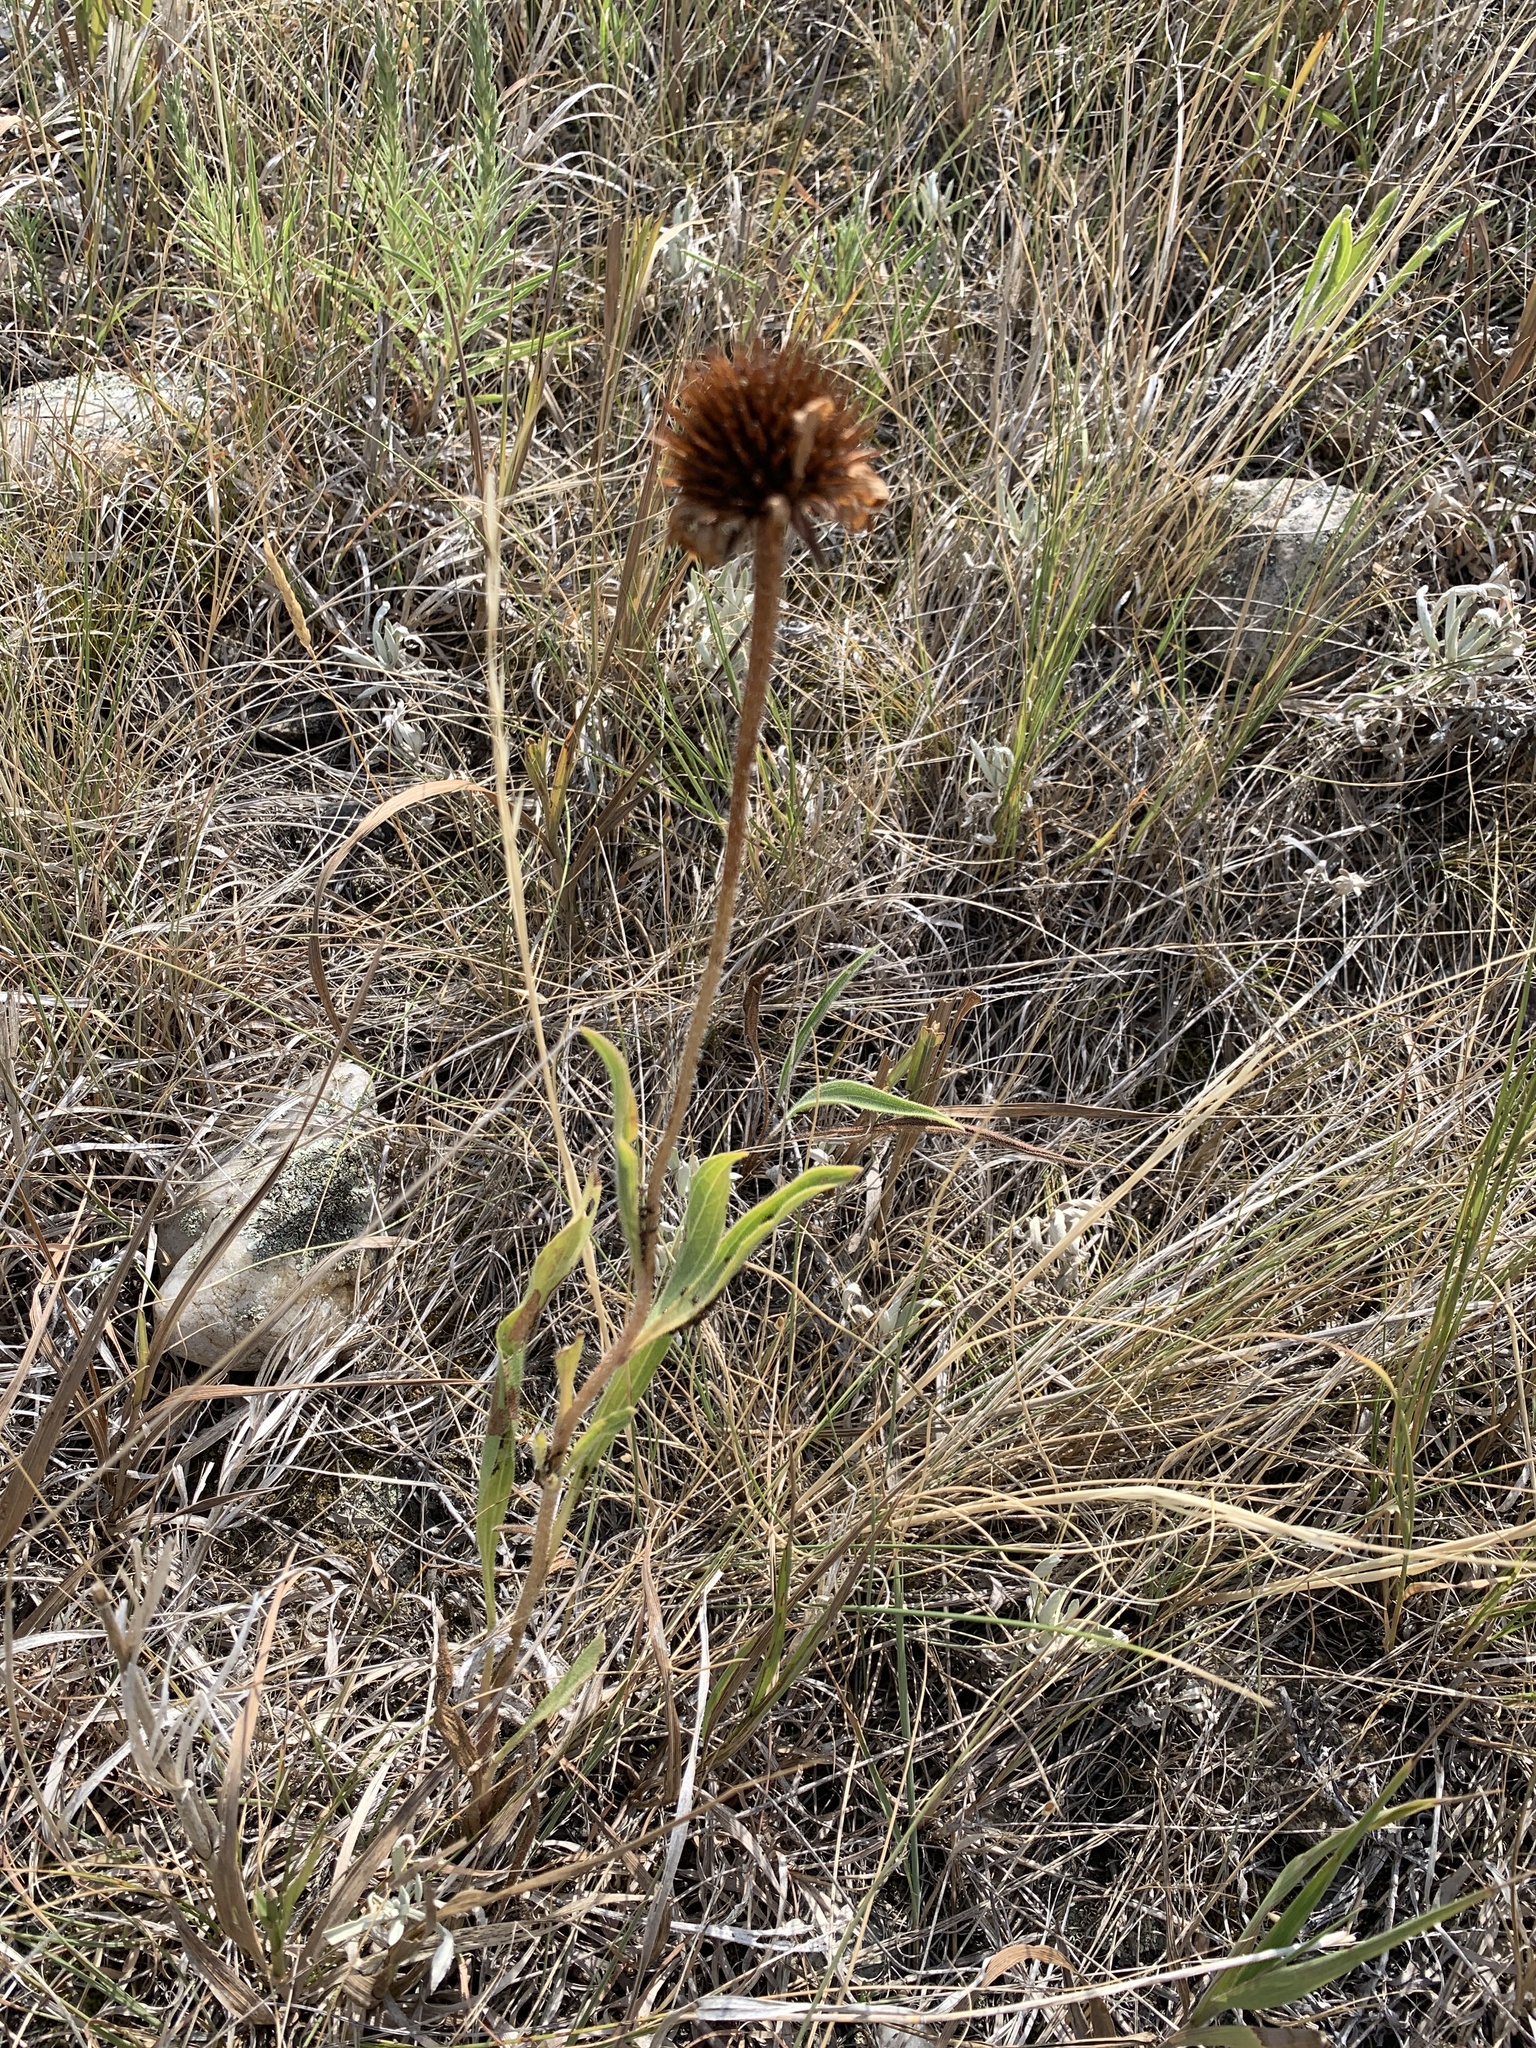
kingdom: Plantae
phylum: Tracheophyta
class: Magnoliopsida
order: Asterales
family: Asteraceae
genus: Echinacea
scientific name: Echinacea angustifolia
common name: Black-sampson echinacea
